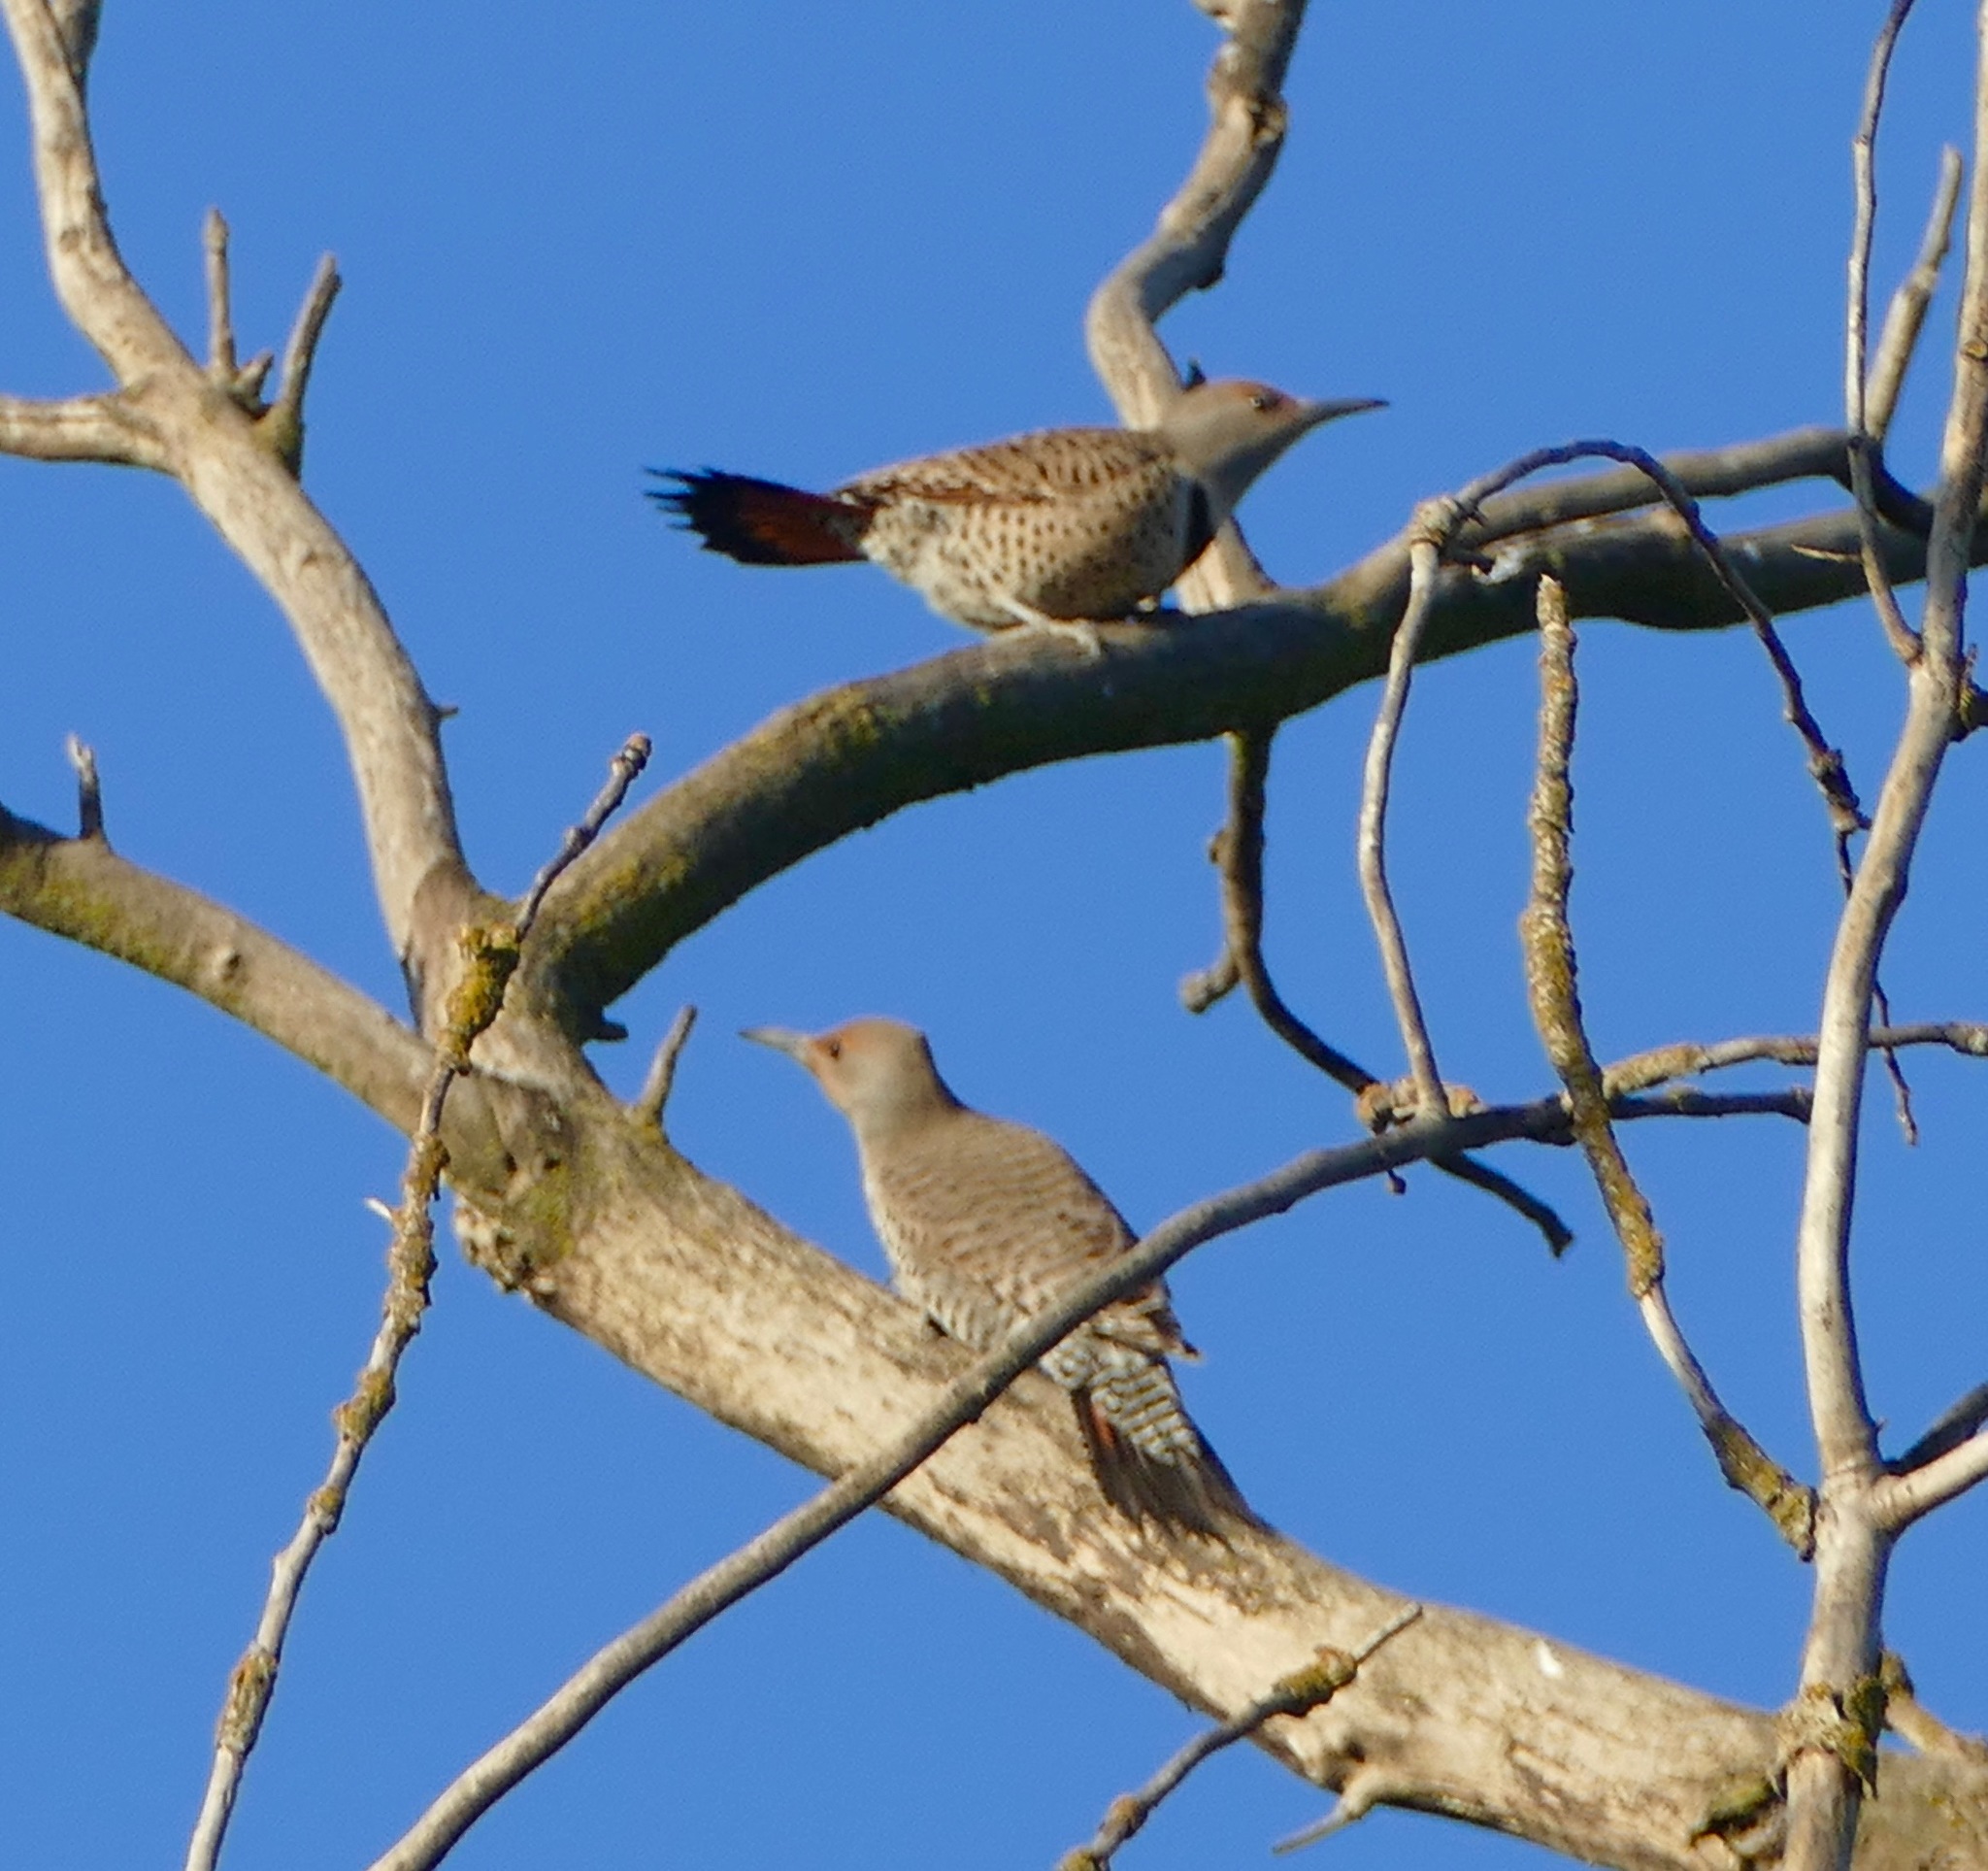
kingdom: Animalia
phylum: Chordata
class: Aves
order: Piciformes
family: Picidae
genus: Colaptes
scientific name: Colaptes auratus
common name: Northern flicker
